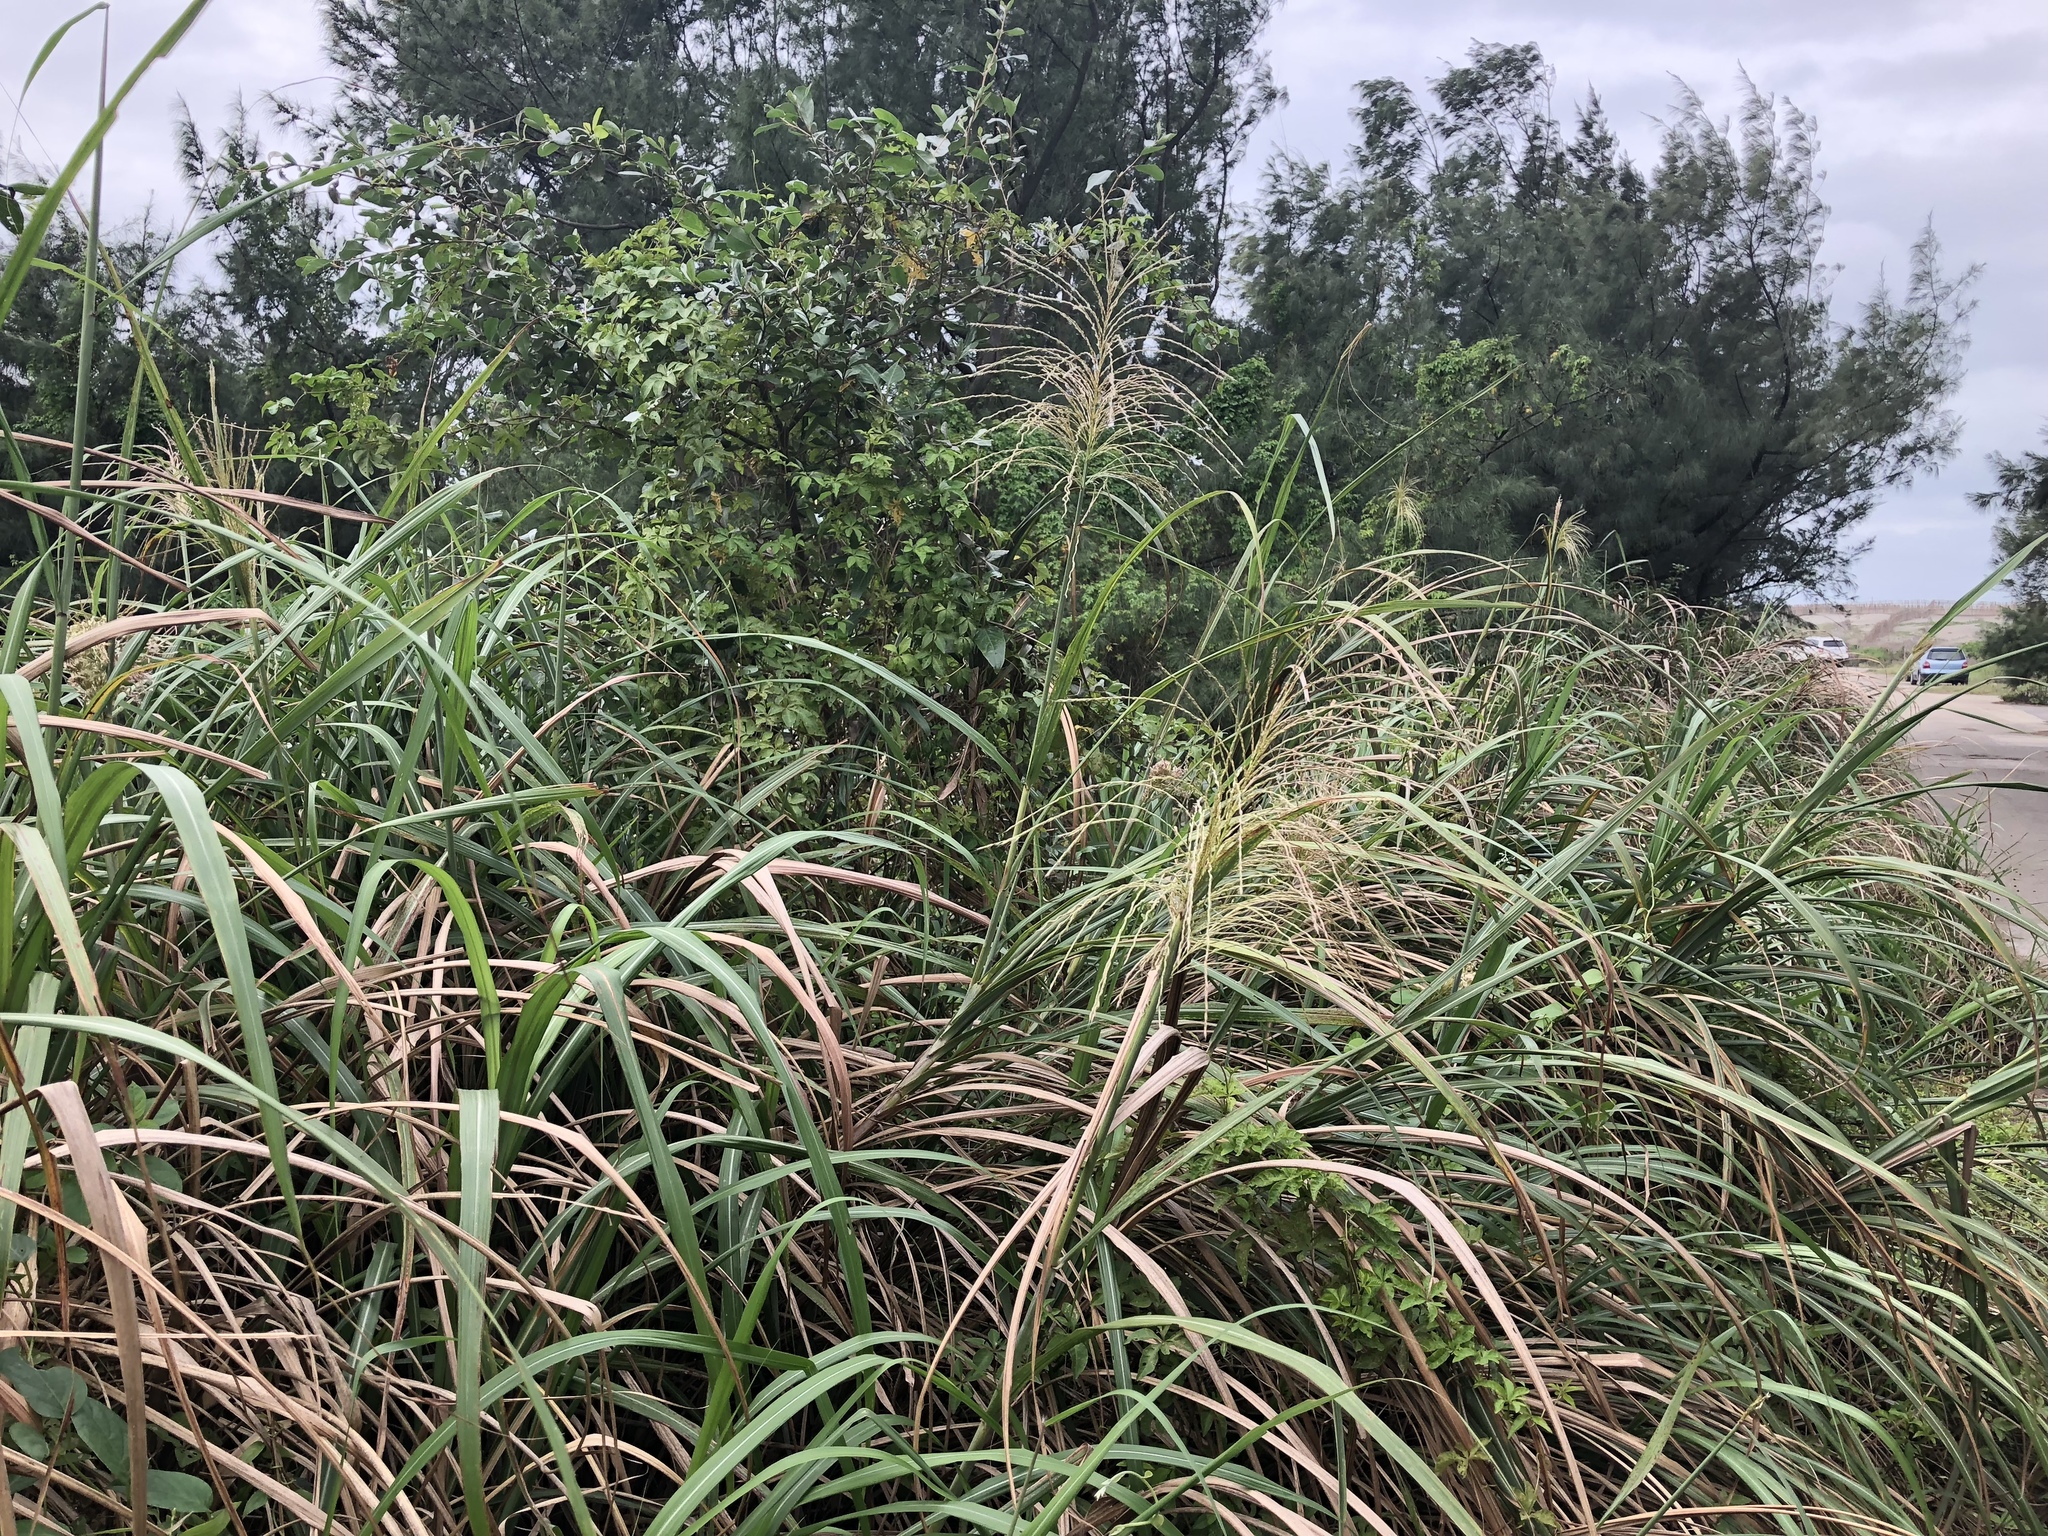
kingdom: Plantae
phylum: Tracheophyta
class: Liliopsida
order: Poales
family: Poaceae
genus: Miscanthus
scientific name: Miscanthus sinensis
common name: Chinese silvergrass
